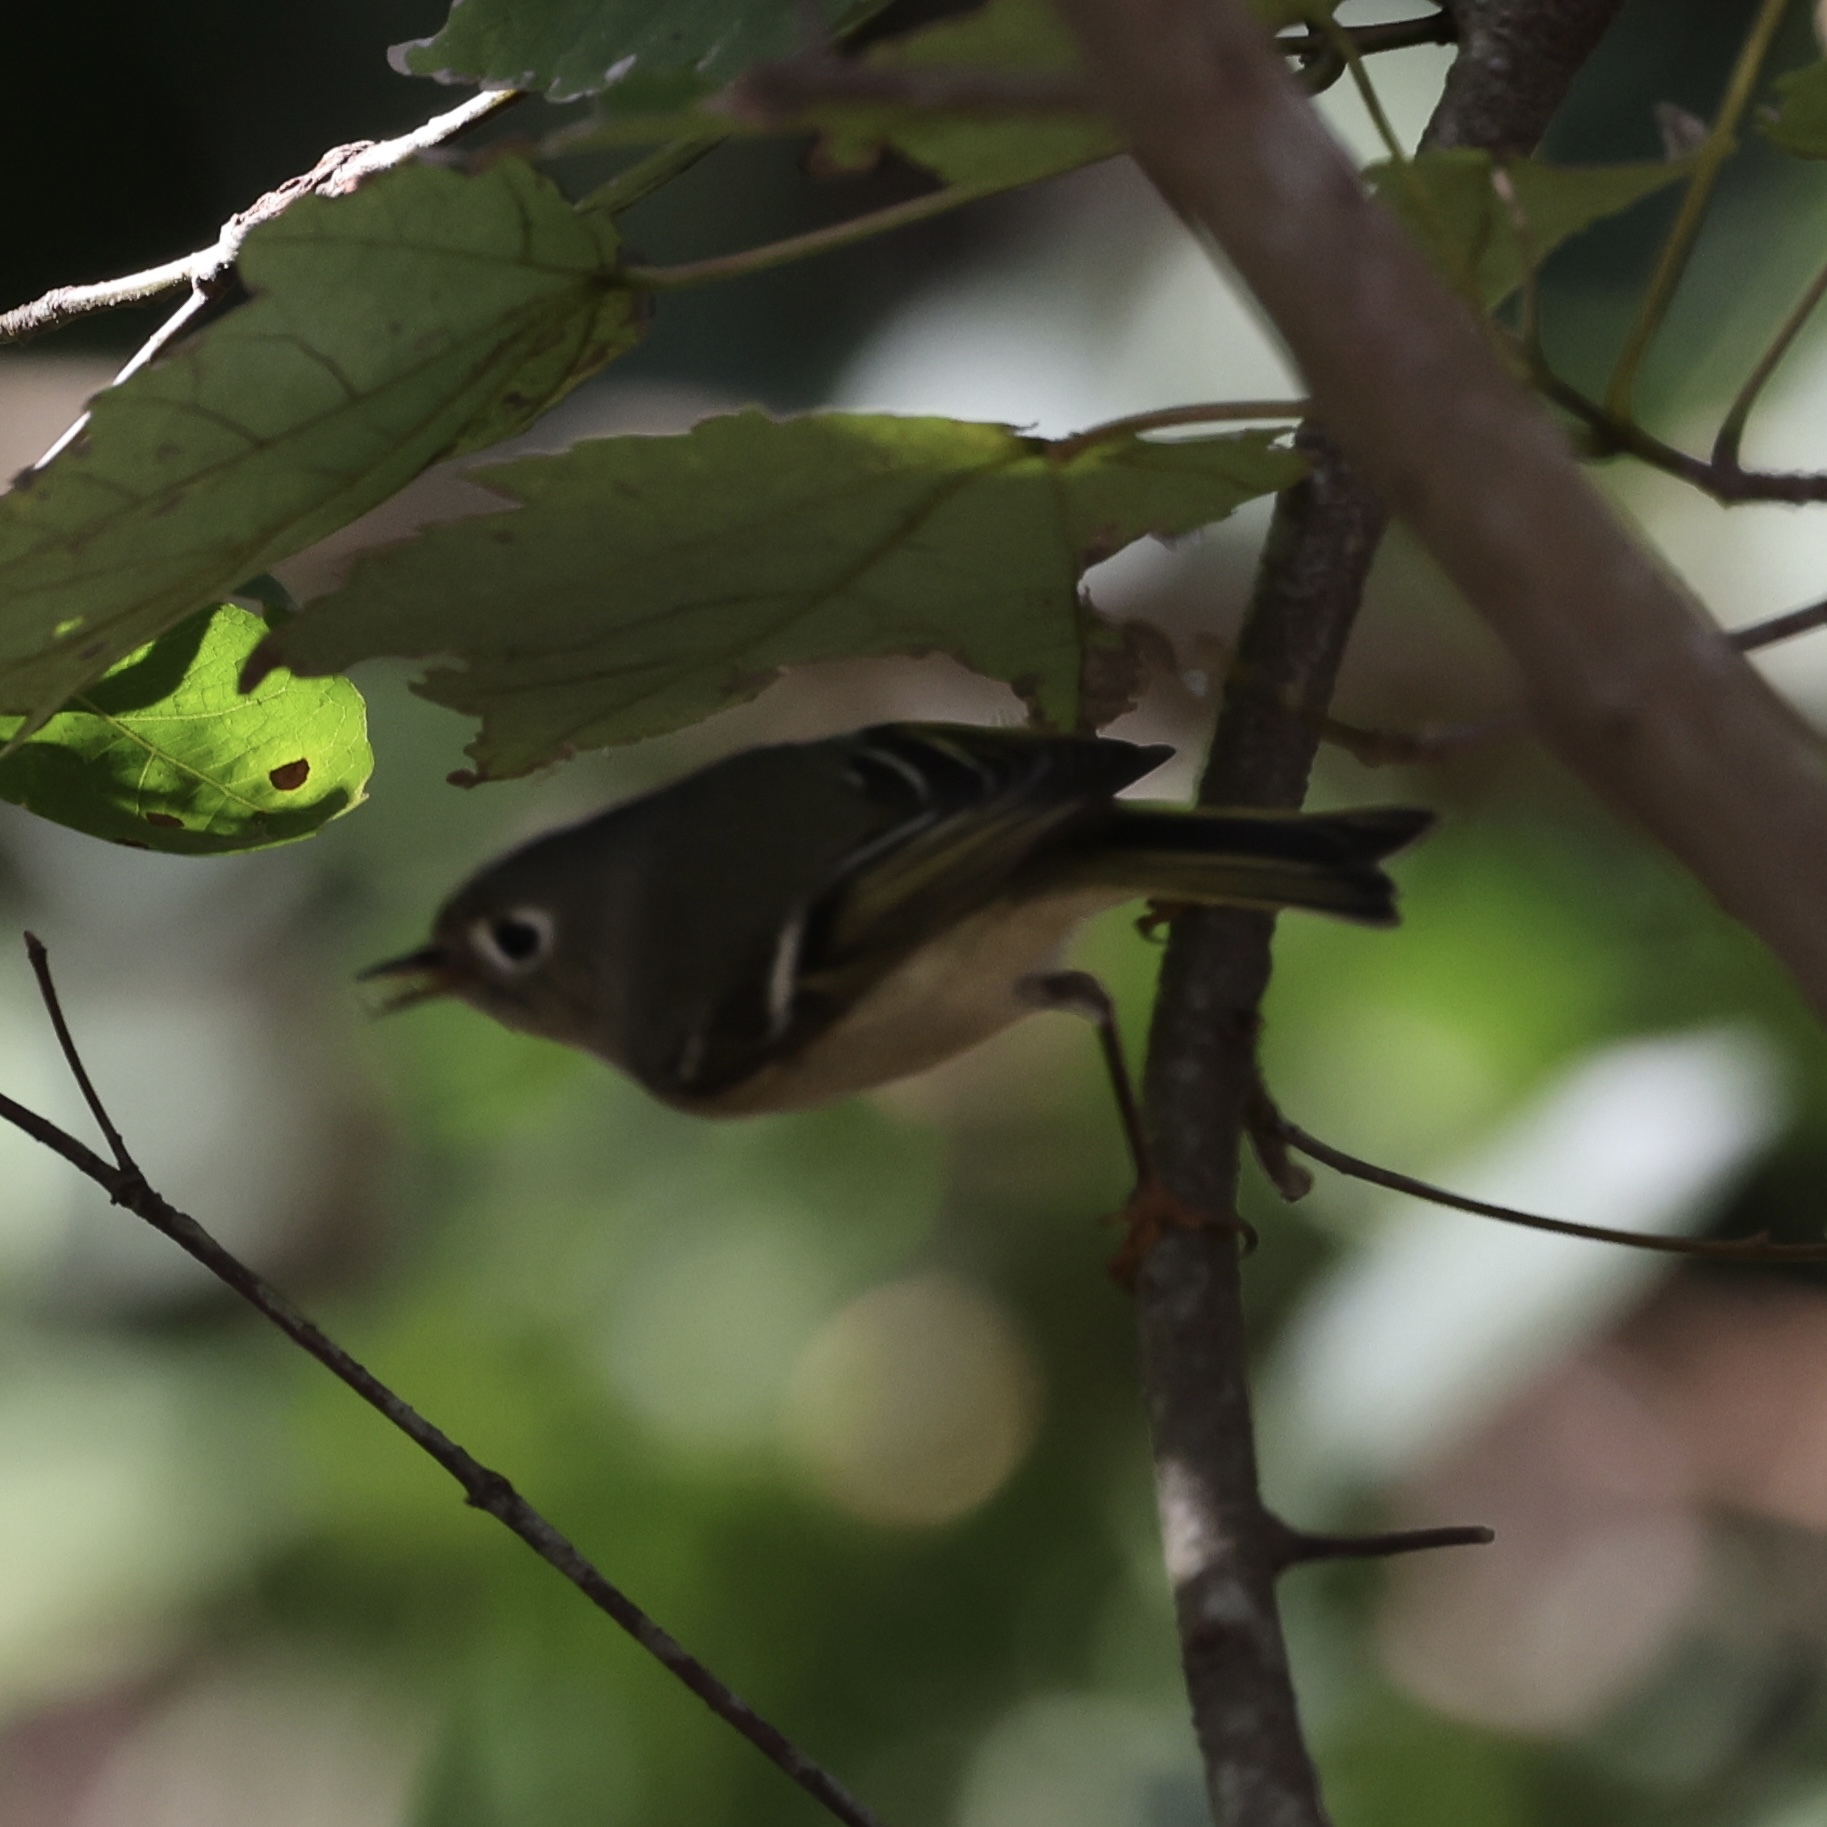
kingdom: Animalia
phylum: Chordata
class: Aves
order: Passeriformes
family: Regulidae
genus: Regulus
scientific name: Regulus calendula
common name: Ruby-crowned kinglet
